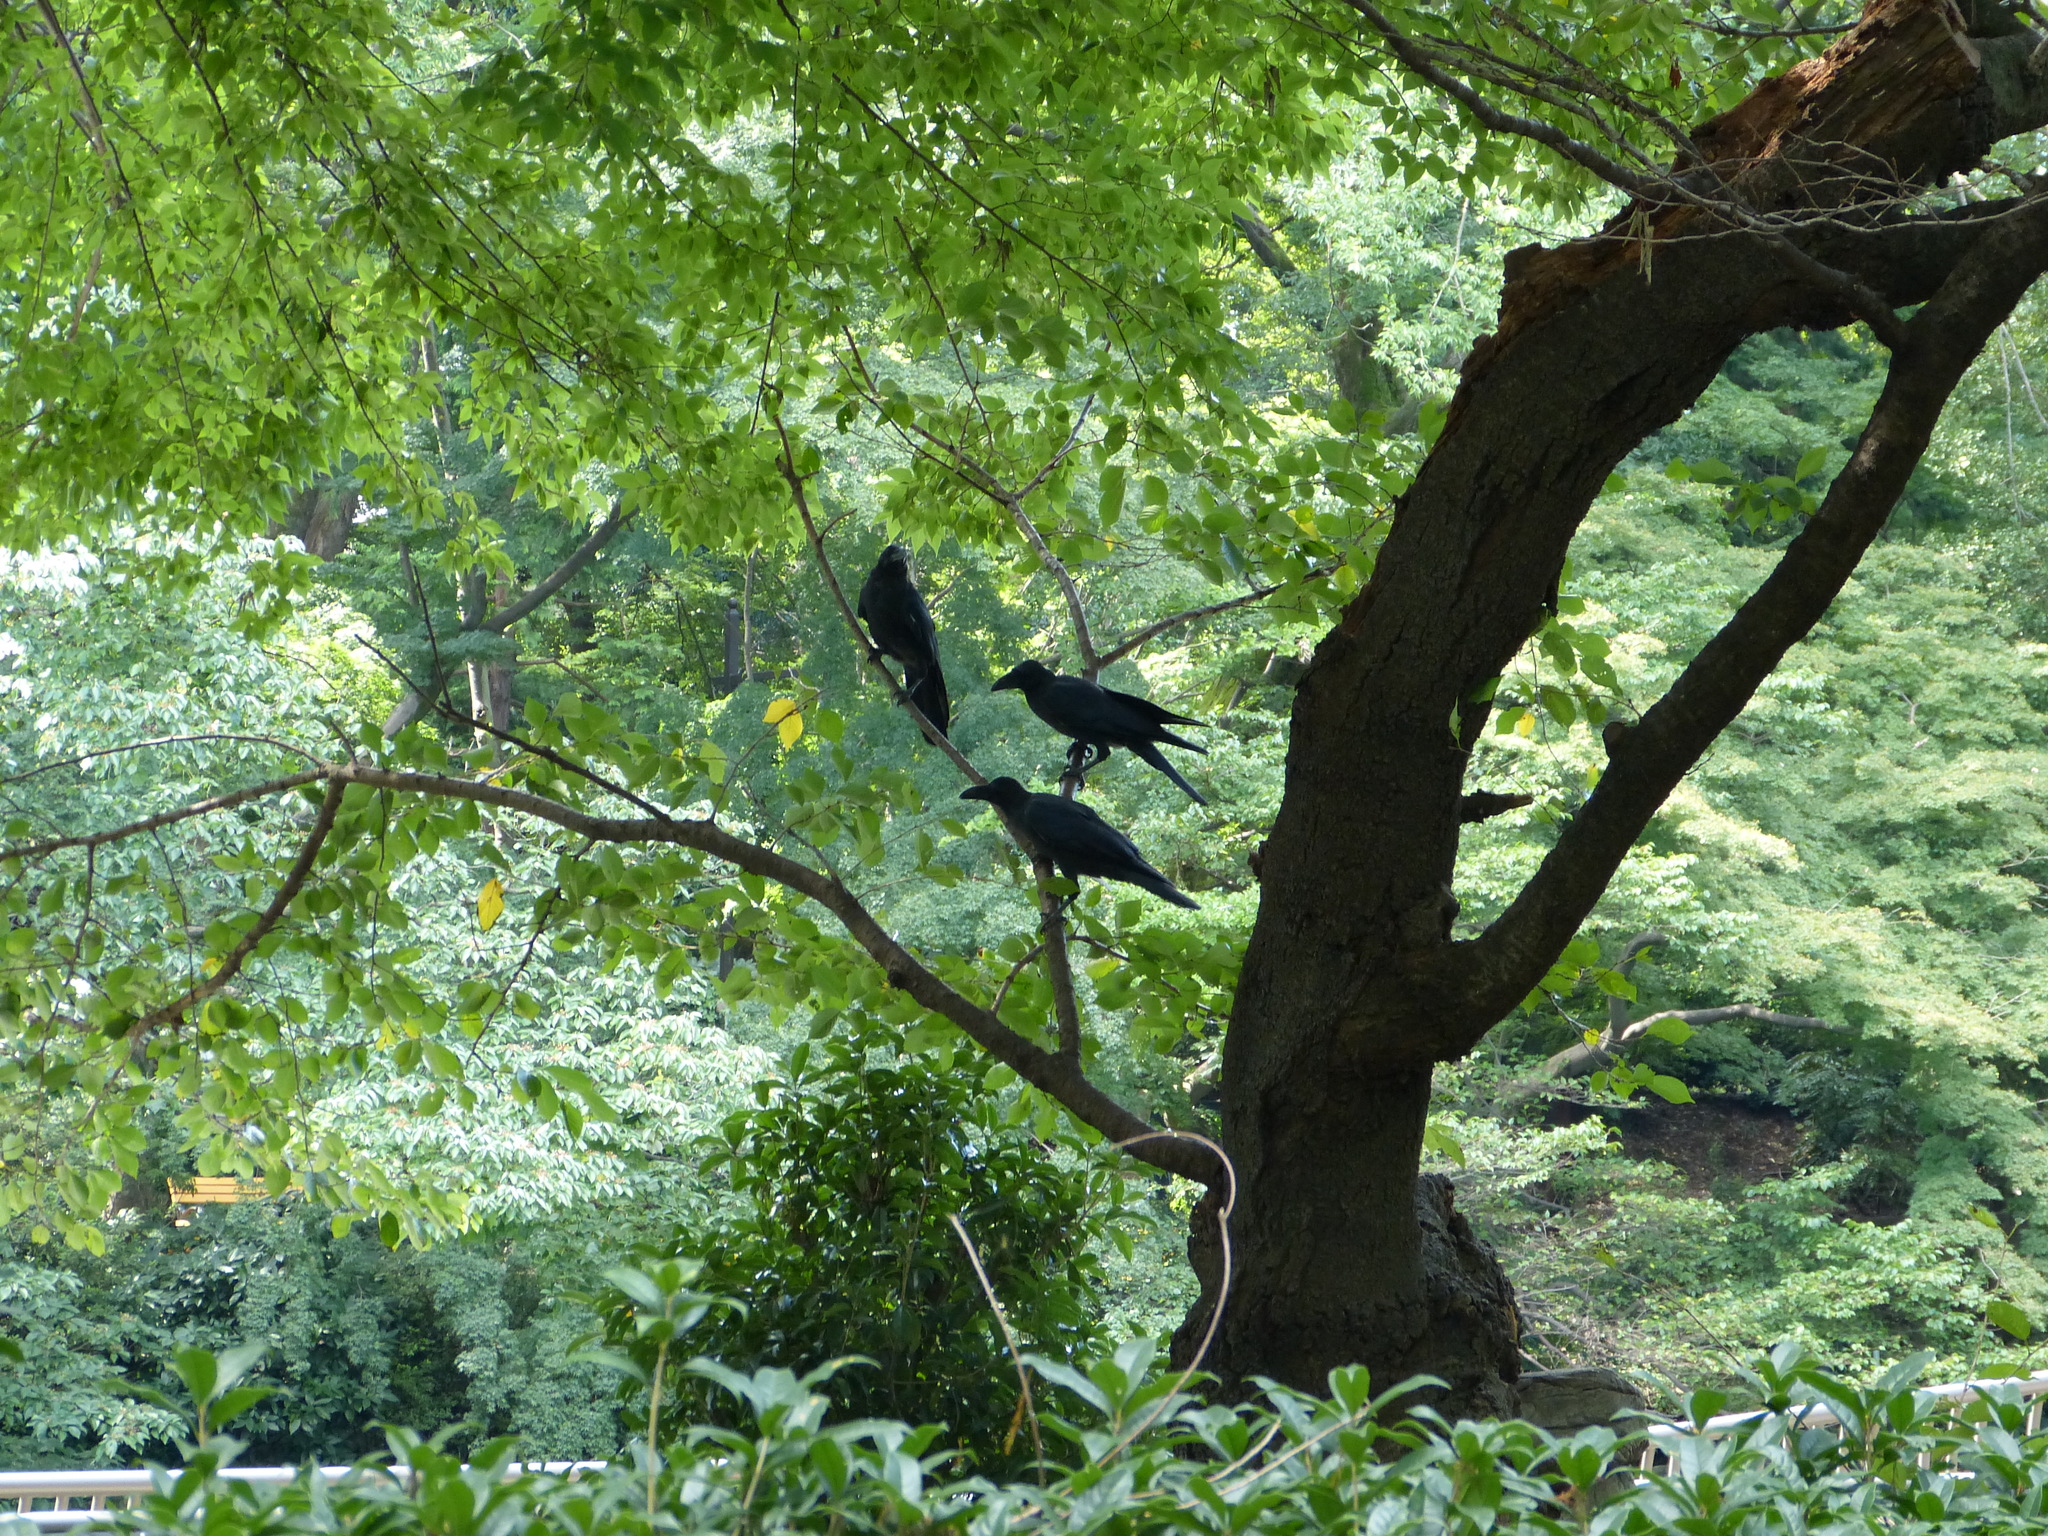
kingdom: Animalia
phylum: Chordata
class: Aves
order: Passeriformes
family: Corvidae
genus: Corvus
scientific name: Corvus macrorhynchos
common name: Large-billed crow
